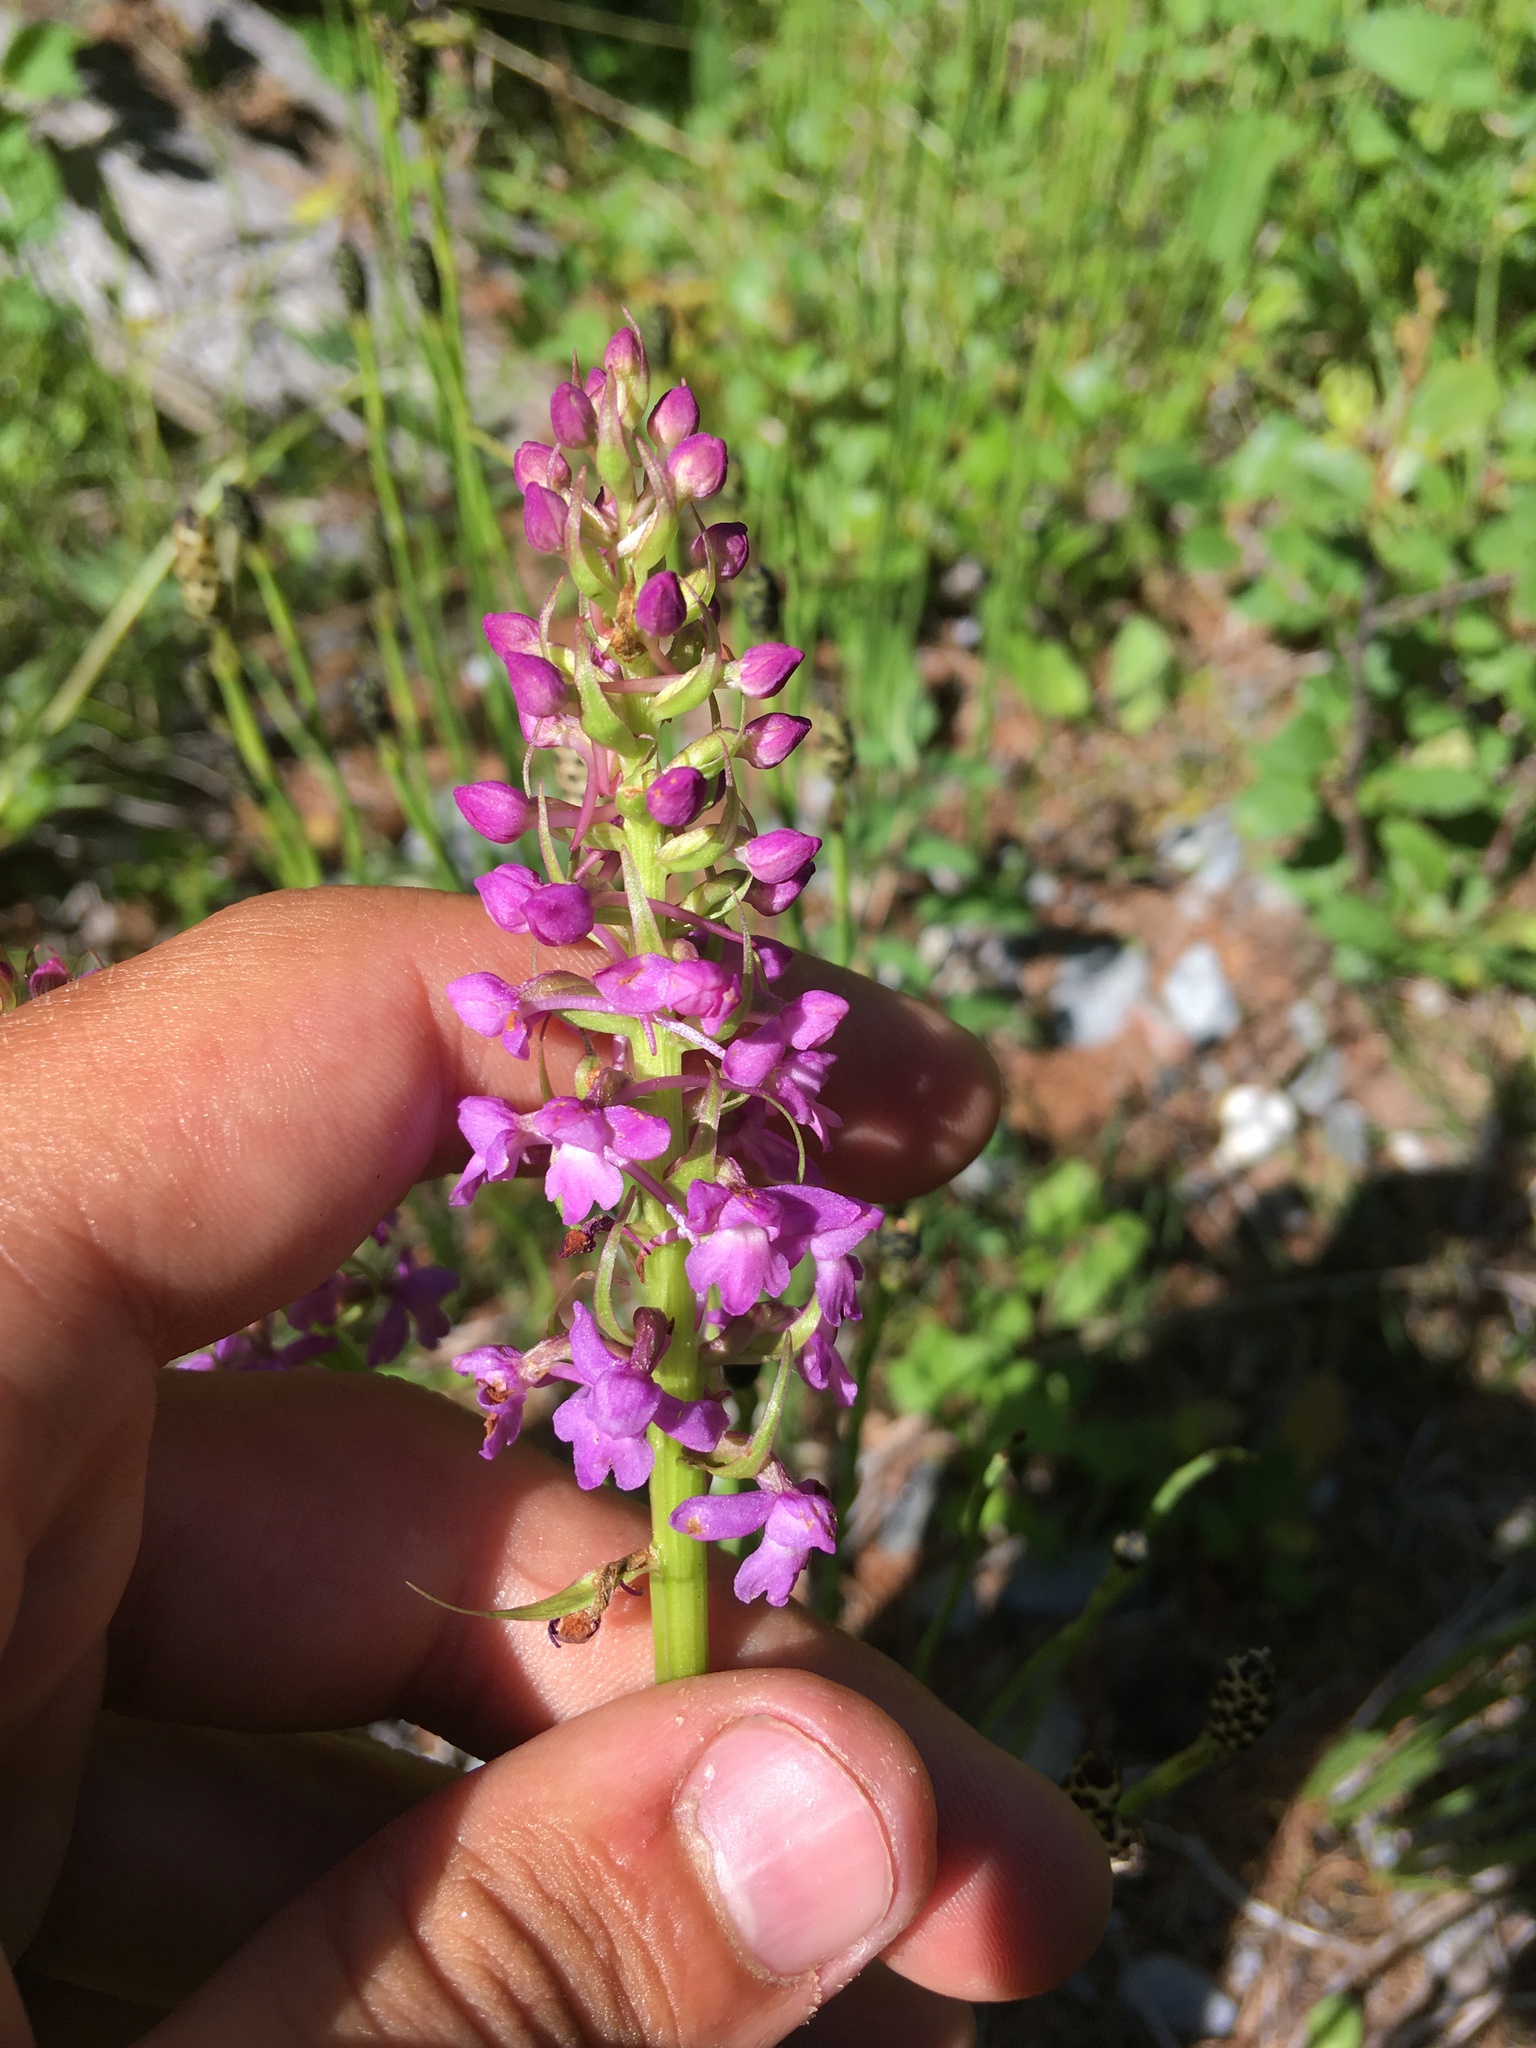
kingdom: Plantae
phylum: Tracheophyta
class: Liliopsida
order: Asparagales
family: Orchidaceae
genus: Gymnadenia
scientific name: Gymnadenia conopsea
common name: Fragrant orchid
